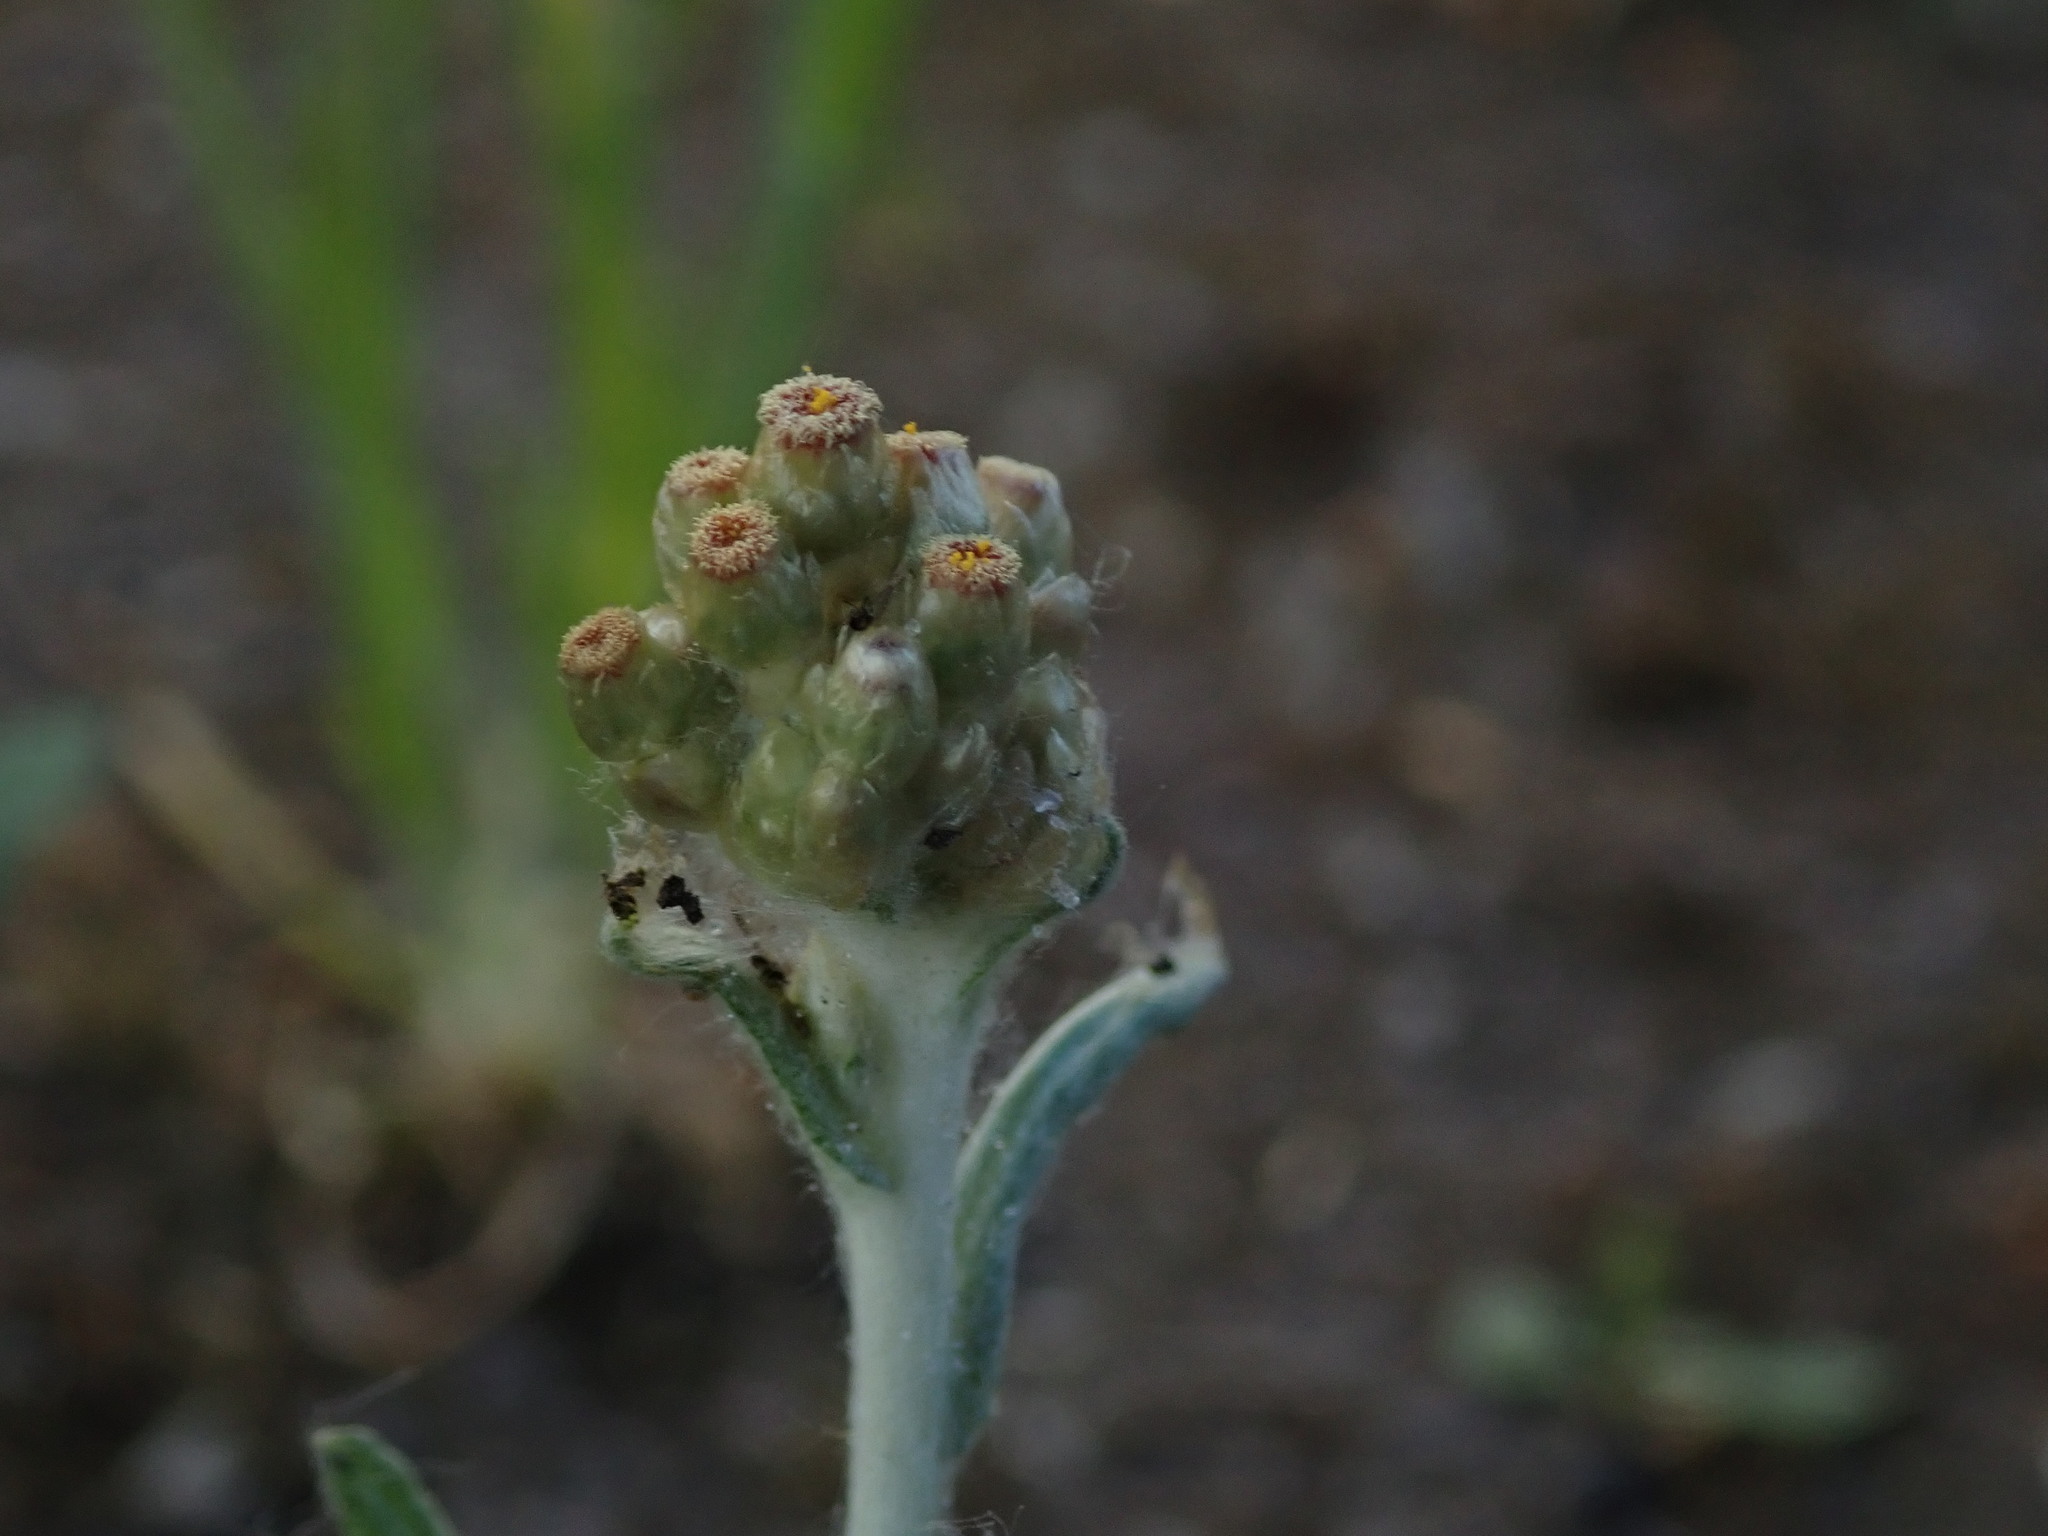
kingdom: Plantae
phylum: Tracheophyta
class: Magnoliopsida
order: Asterales
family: Asteraceae
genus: Helichrysum
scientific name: Helichrysum luteoalbum
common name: Daisy
